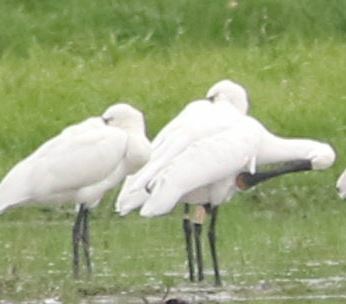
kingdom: Animalia
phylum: Chordata
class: Aves
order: Pelecaniformes
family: Threskiornithidae
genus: Platalea
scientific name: Platalea leucorodia
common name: Eurasian spoonbill
